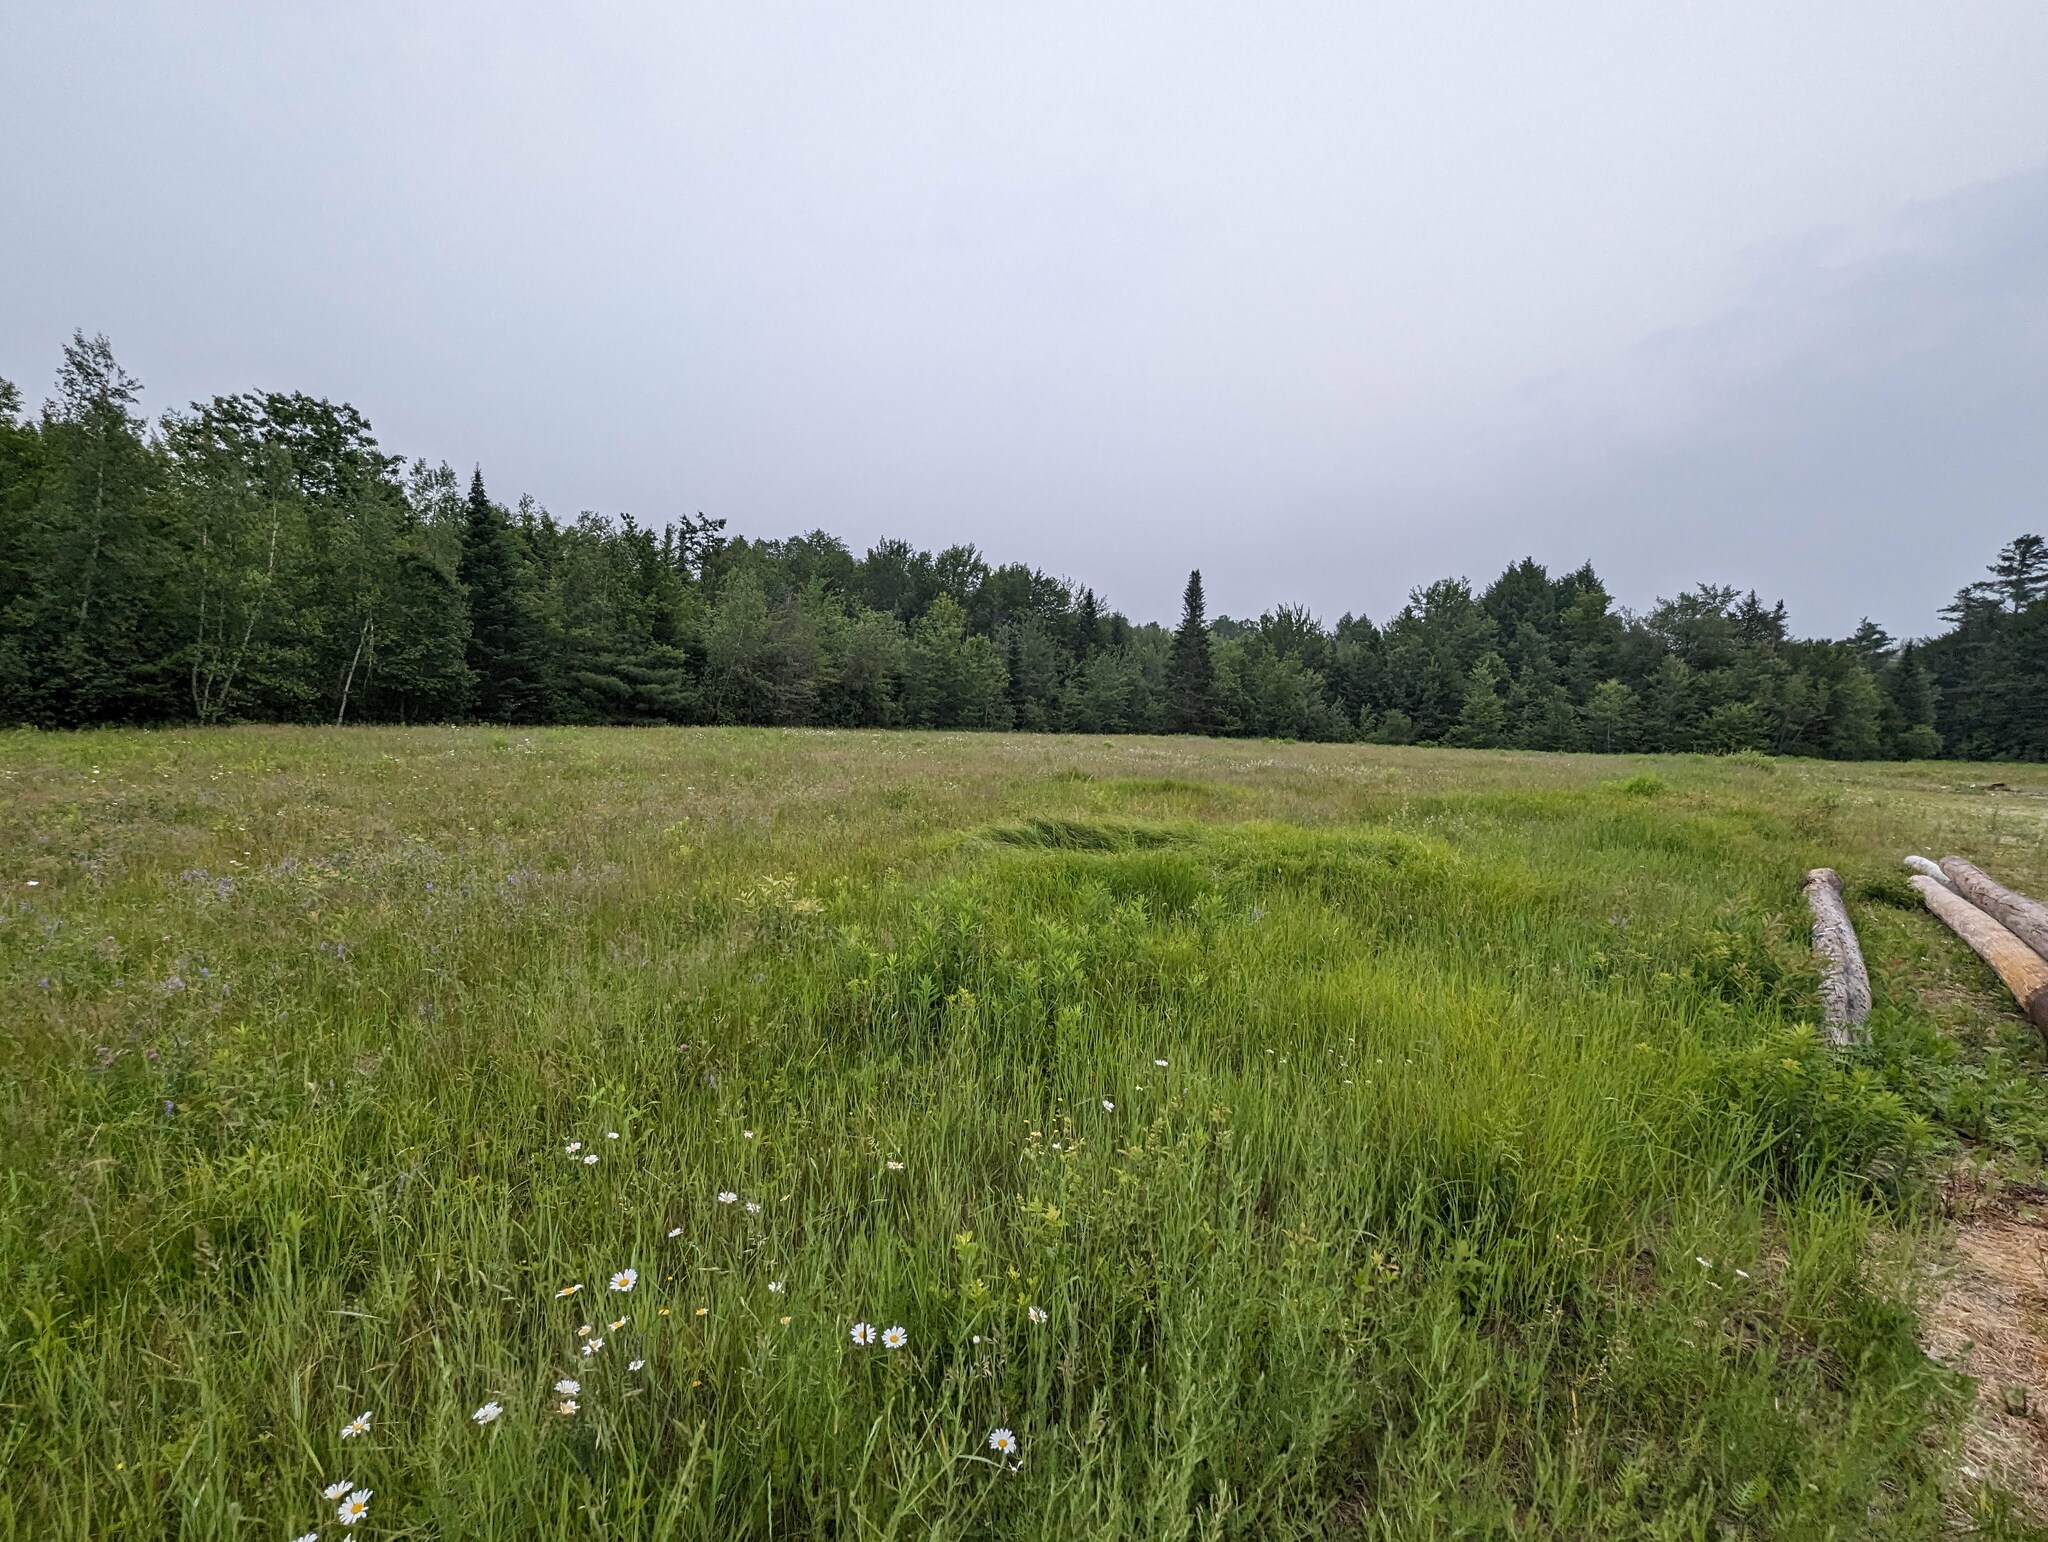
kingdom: Plantae
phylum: Tracheophyta
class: Magnoliopsida
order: Asterales
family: Asteraceae
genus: Leucanthemum
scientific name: Leucanthemum vulgare
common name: Oxeye daisy
